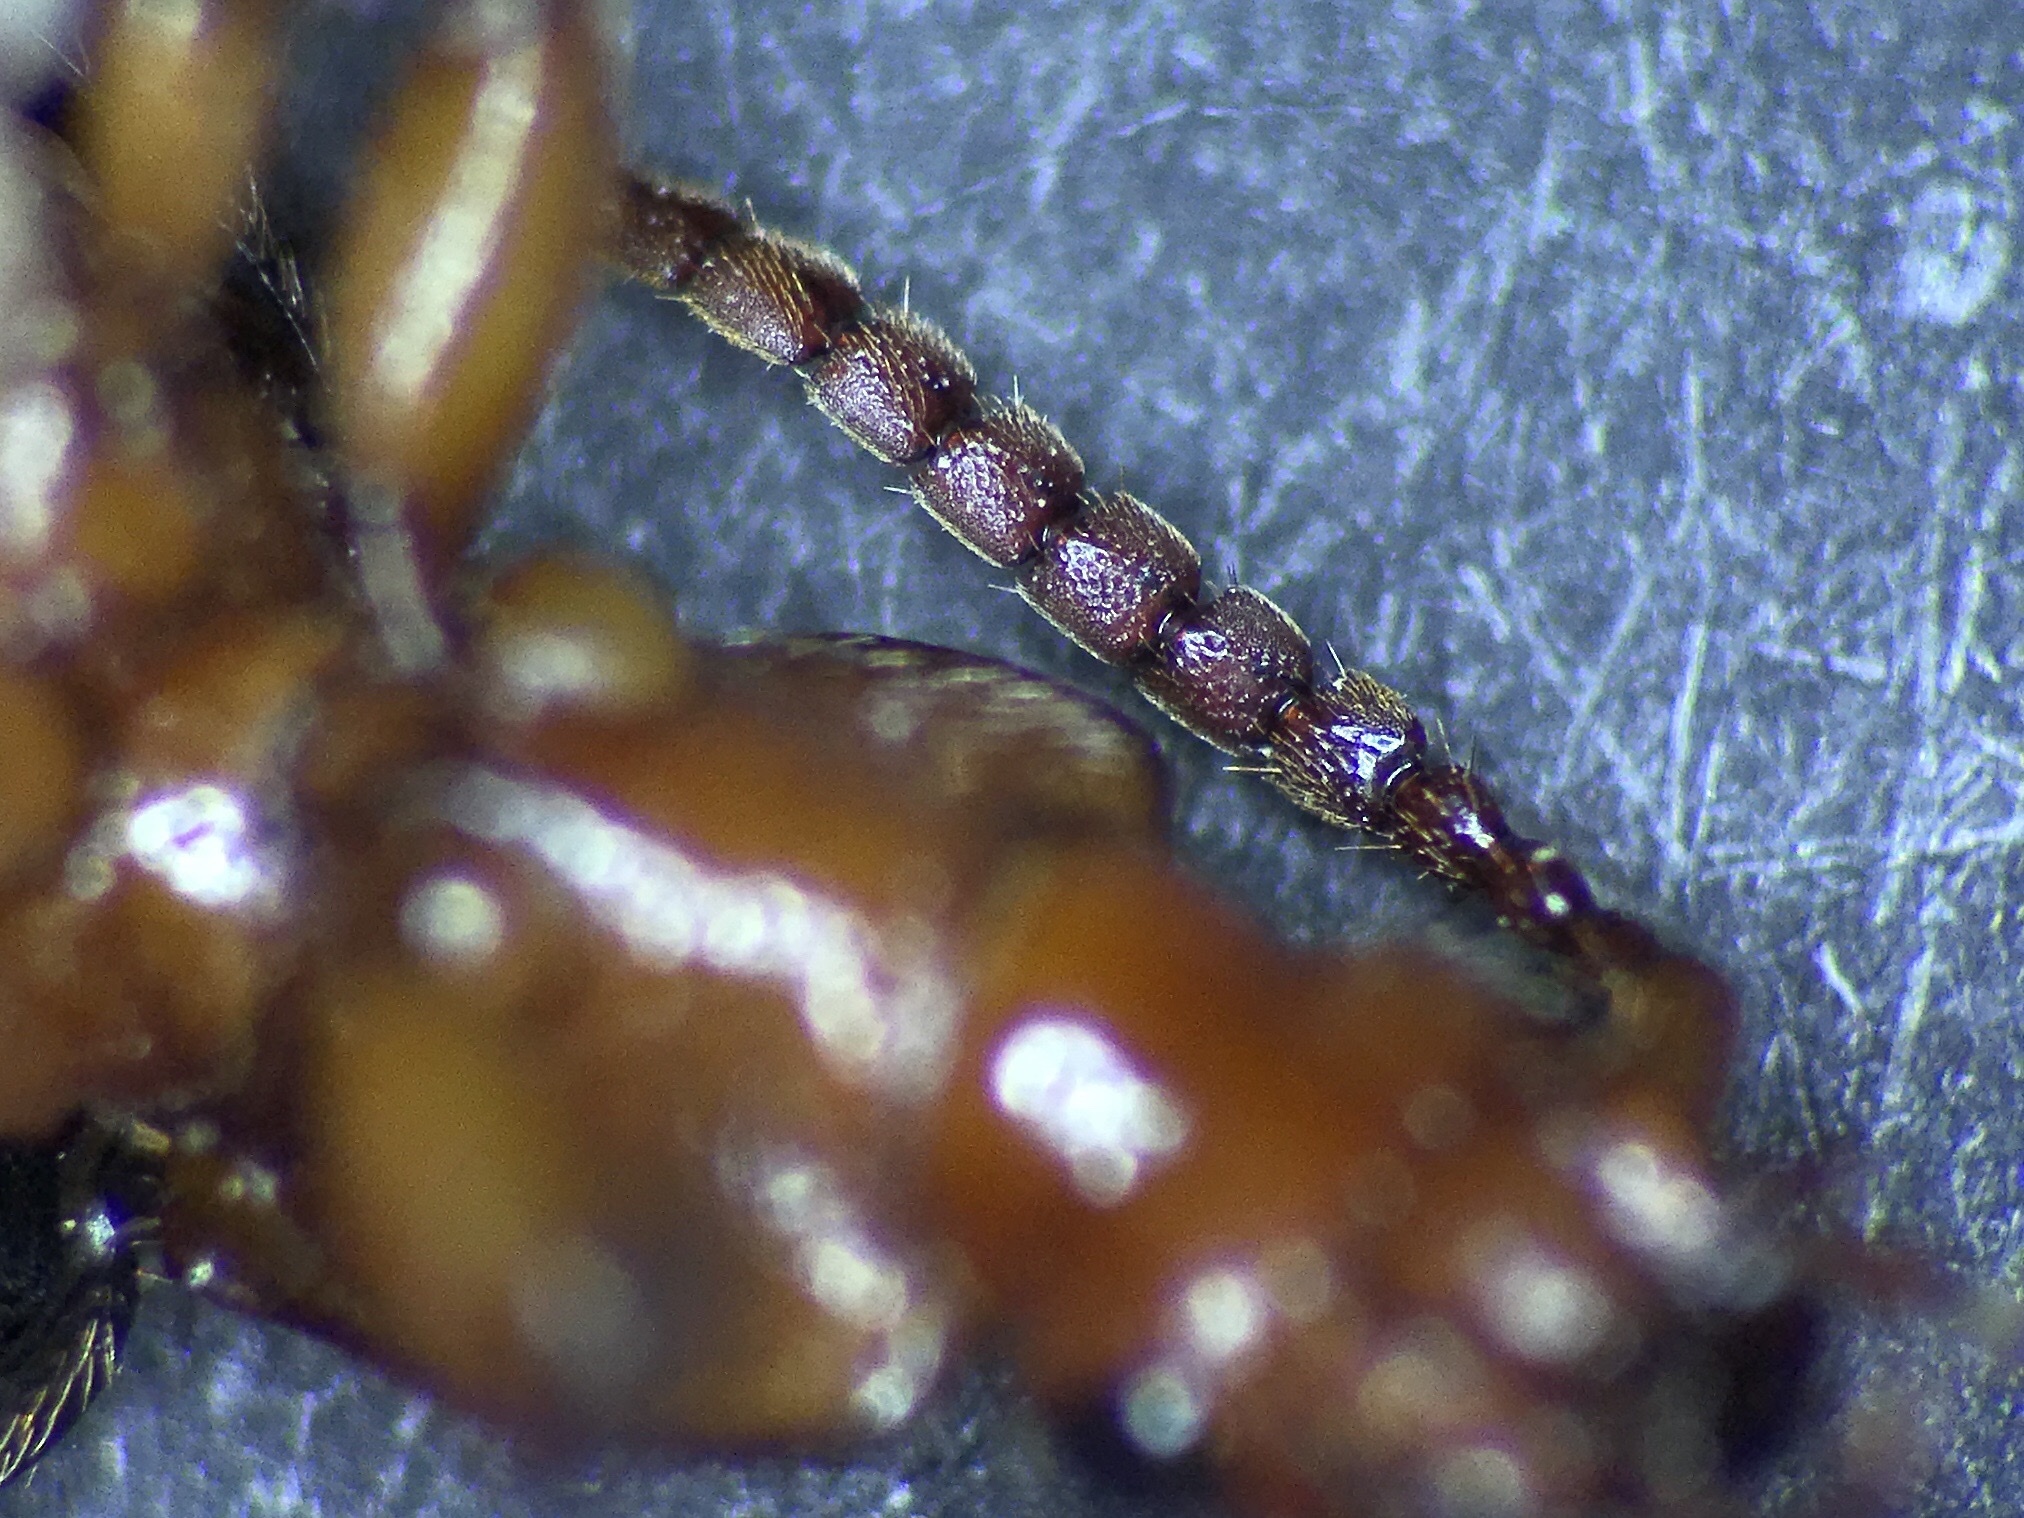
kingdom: Animalia
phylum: Arthropoda
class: Insecta
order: Coleoptera
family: Carabidae
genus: Helluomorphoides
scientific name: Helluomorphoides nigripennis
